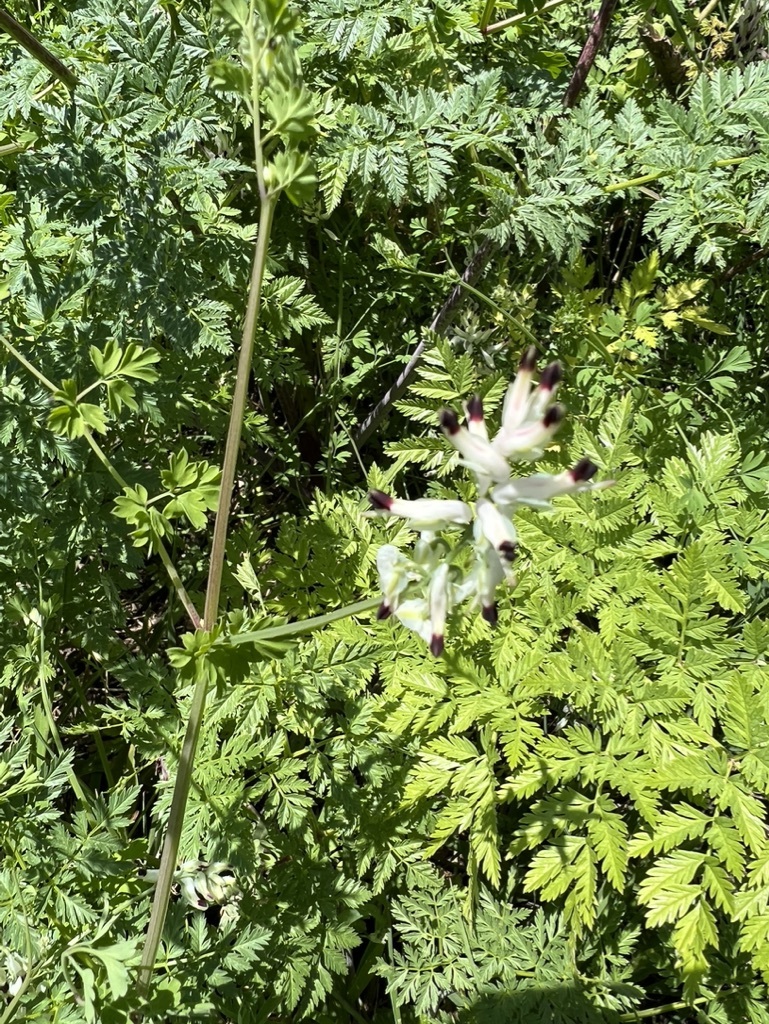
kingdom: Plantae
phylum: Tracheophyta
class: Magnoliopsida
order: Ranunculales
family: Papaveraceae
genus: Fumaria
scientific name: Fumaria capreolata
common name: White ramping-fumitory
